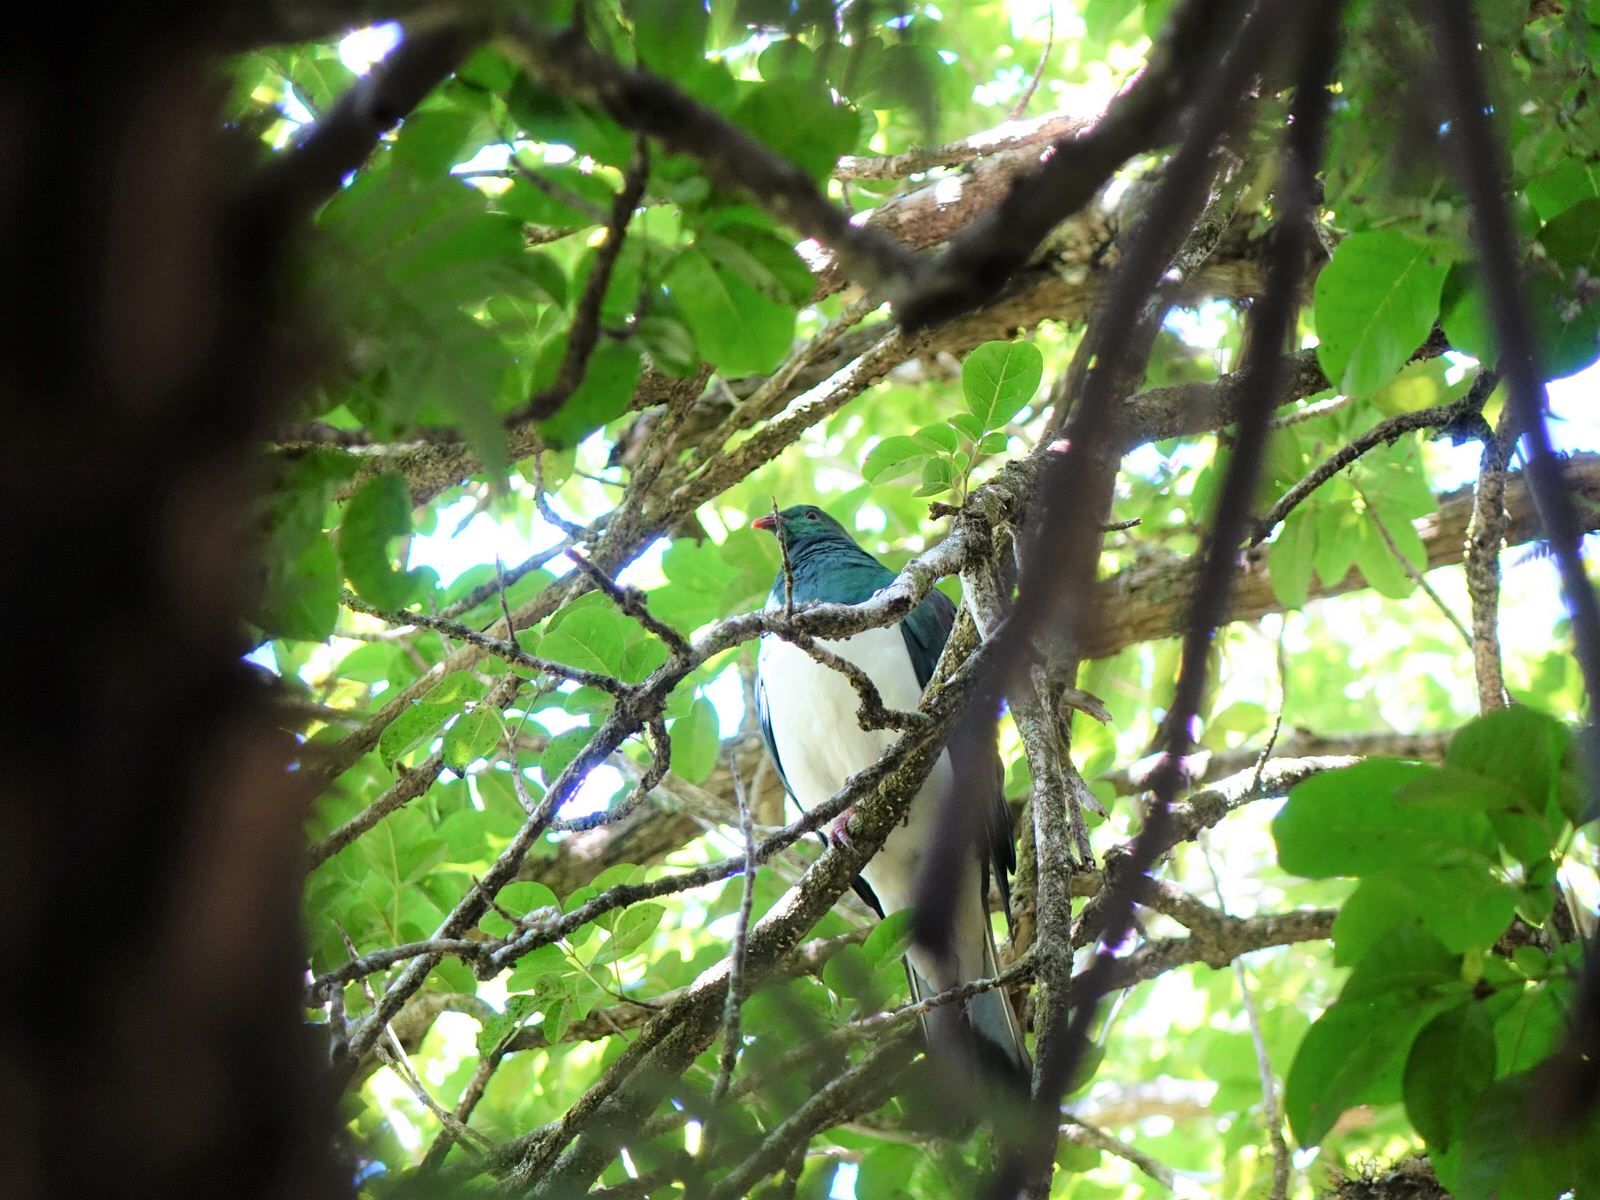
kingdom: Animalia
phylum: Chordata
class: Aves
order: Columbiformes
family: Columbidae
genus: Hemiphaga
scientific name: Hemiphaga novaeseelandiae
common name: New zealand pigeon
